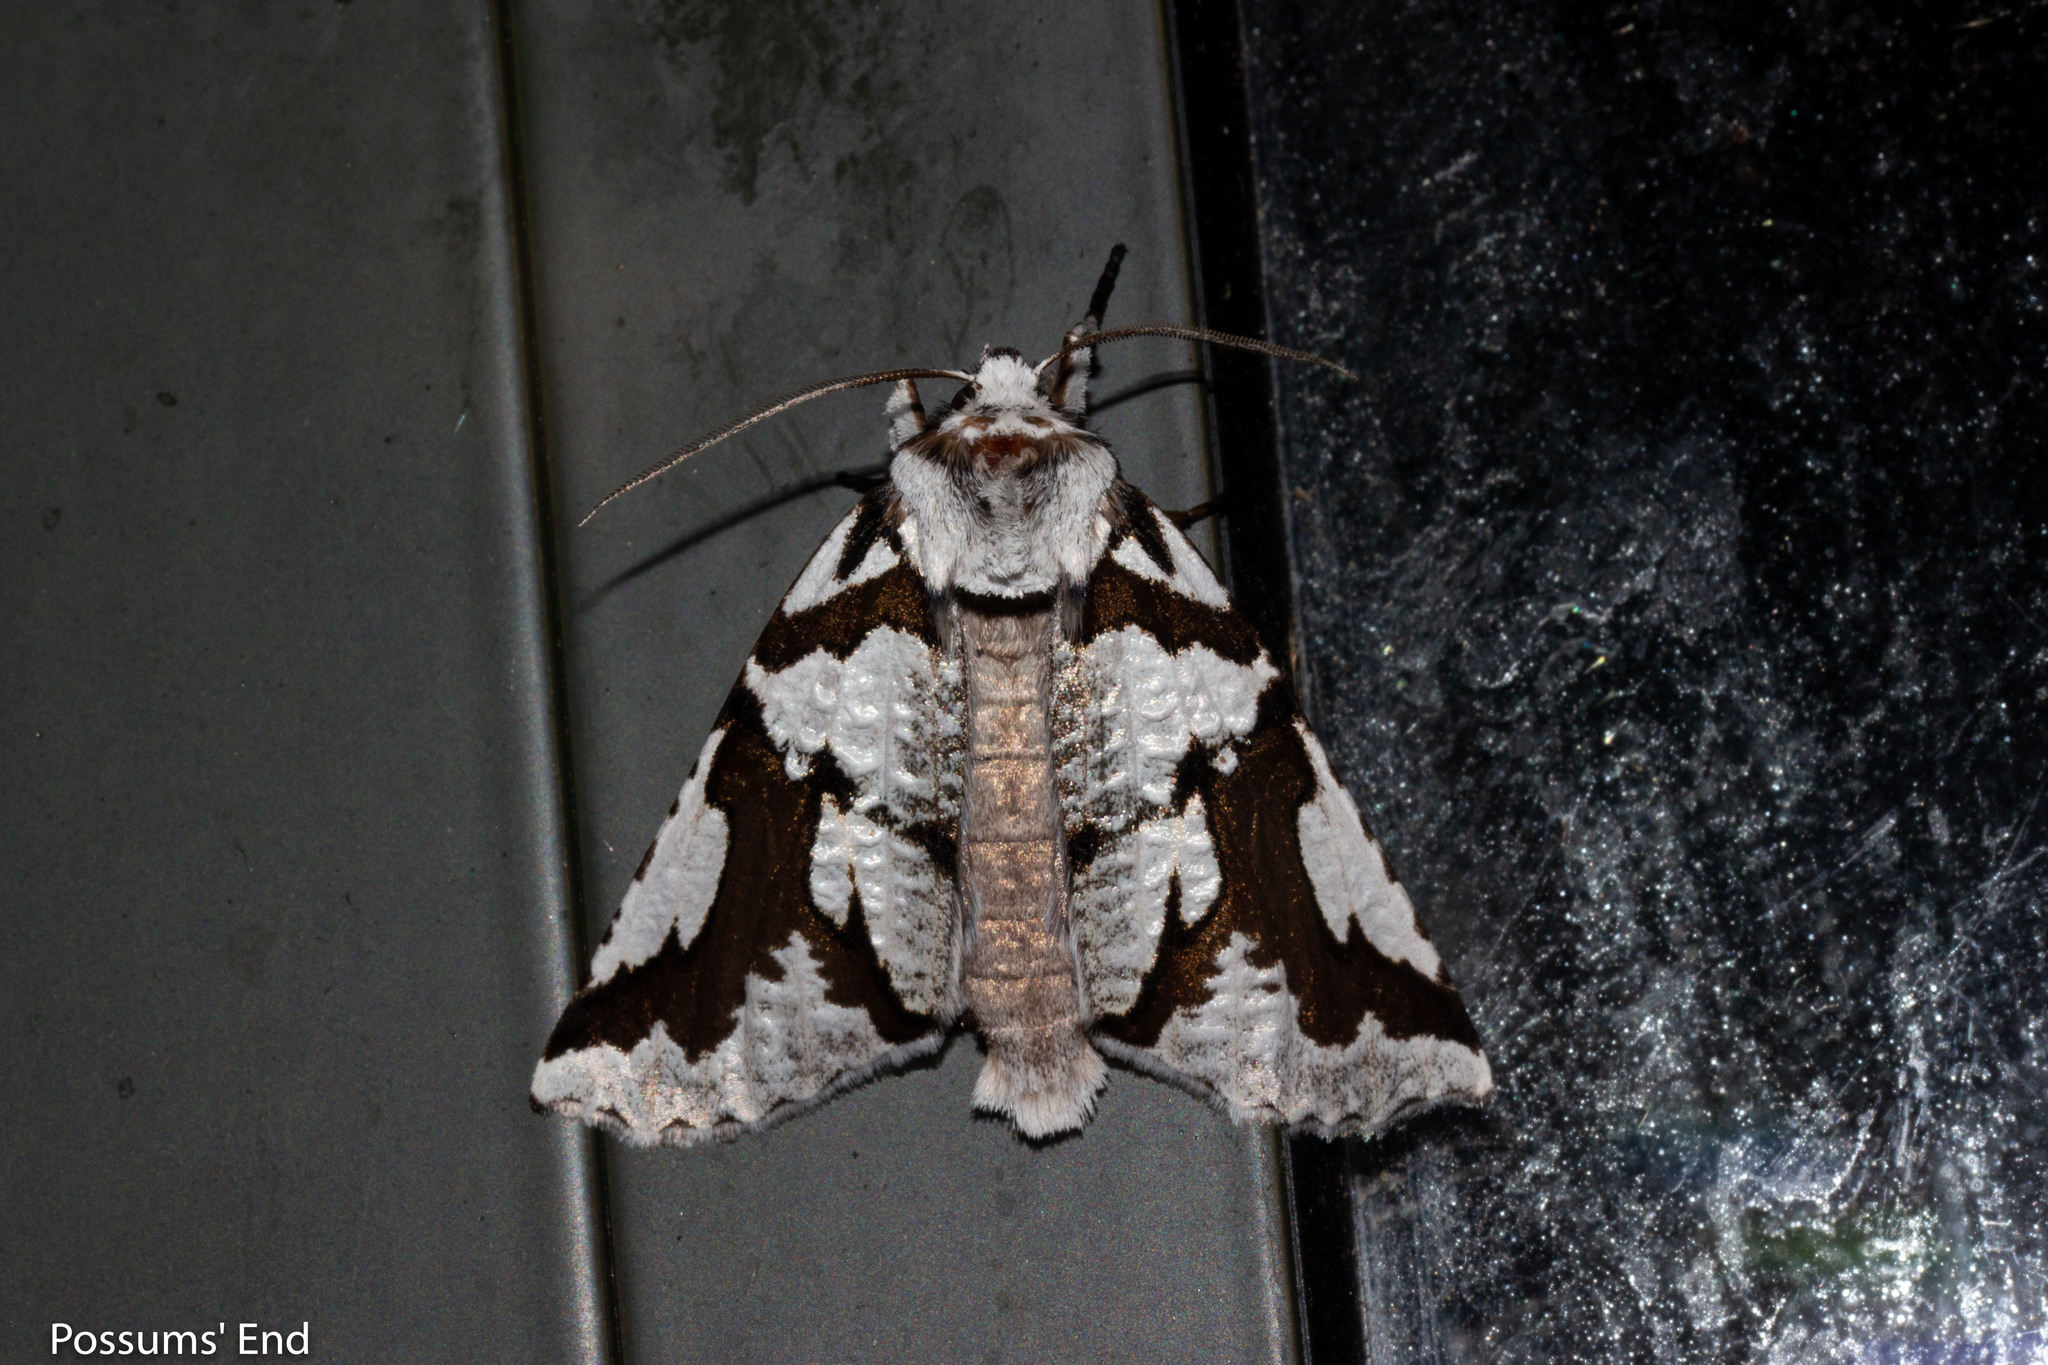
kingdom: Animalia
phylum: Arthropoda
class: Insecta
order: Lepidoptera
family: Geometridae
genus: Declana
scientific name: Declana
